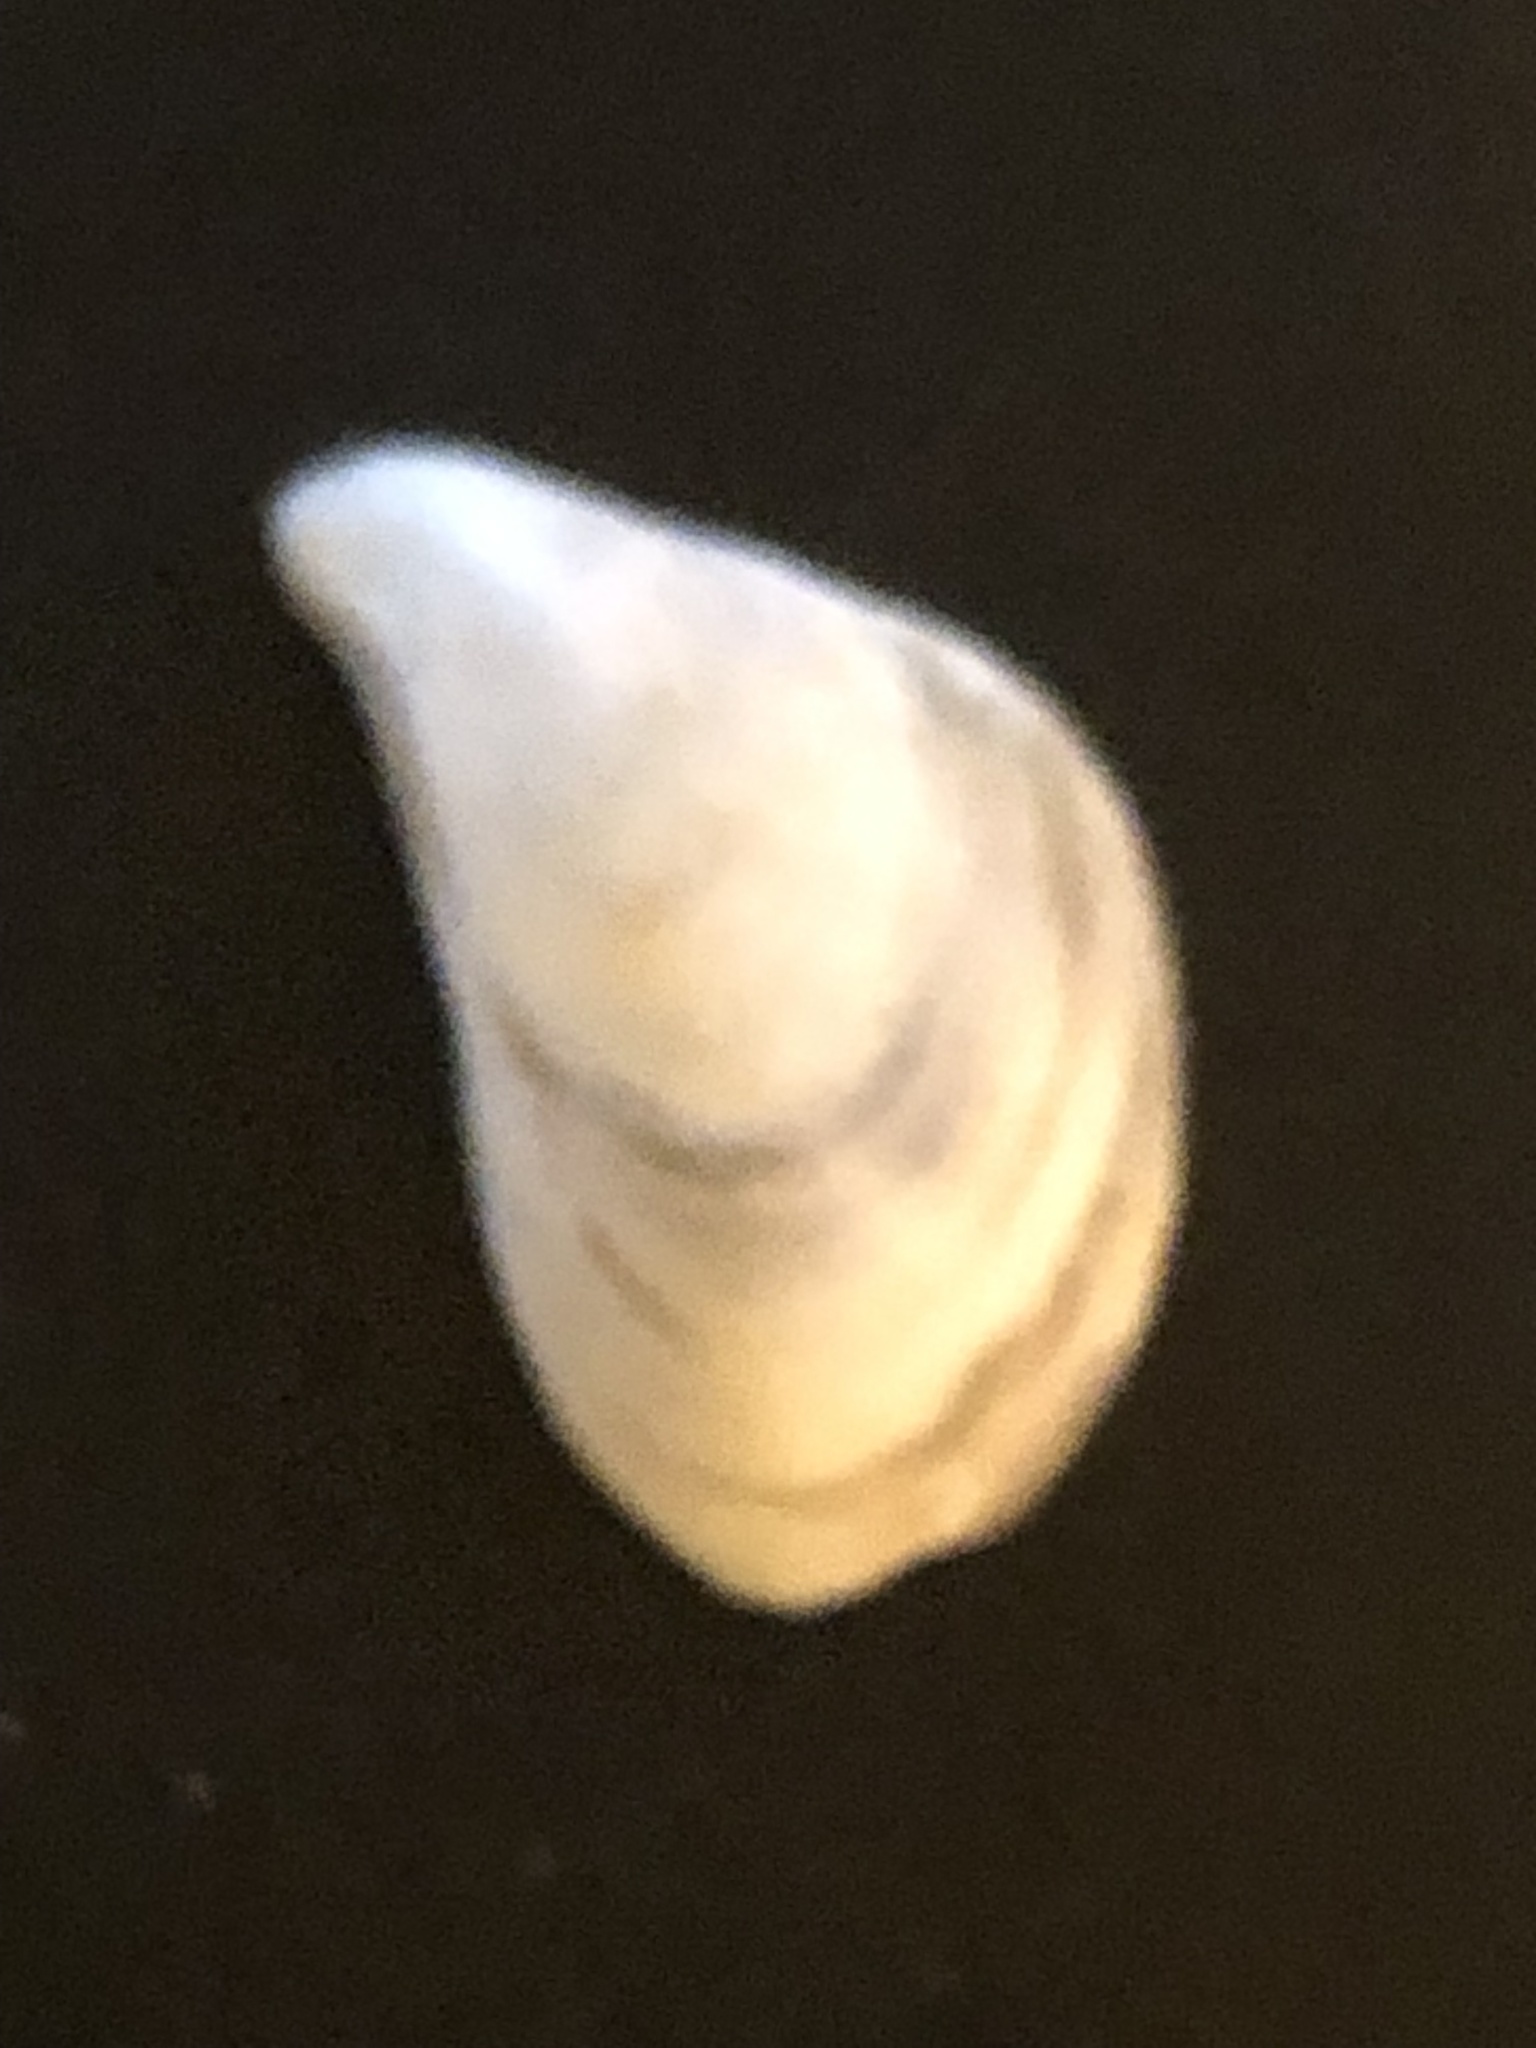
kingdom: Animalia
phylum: Mollusca
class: Bivalvia
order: Myida
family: Dreissenidae
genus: Dreissena
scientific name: Dreissena bugensis
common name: Quagga mussel
